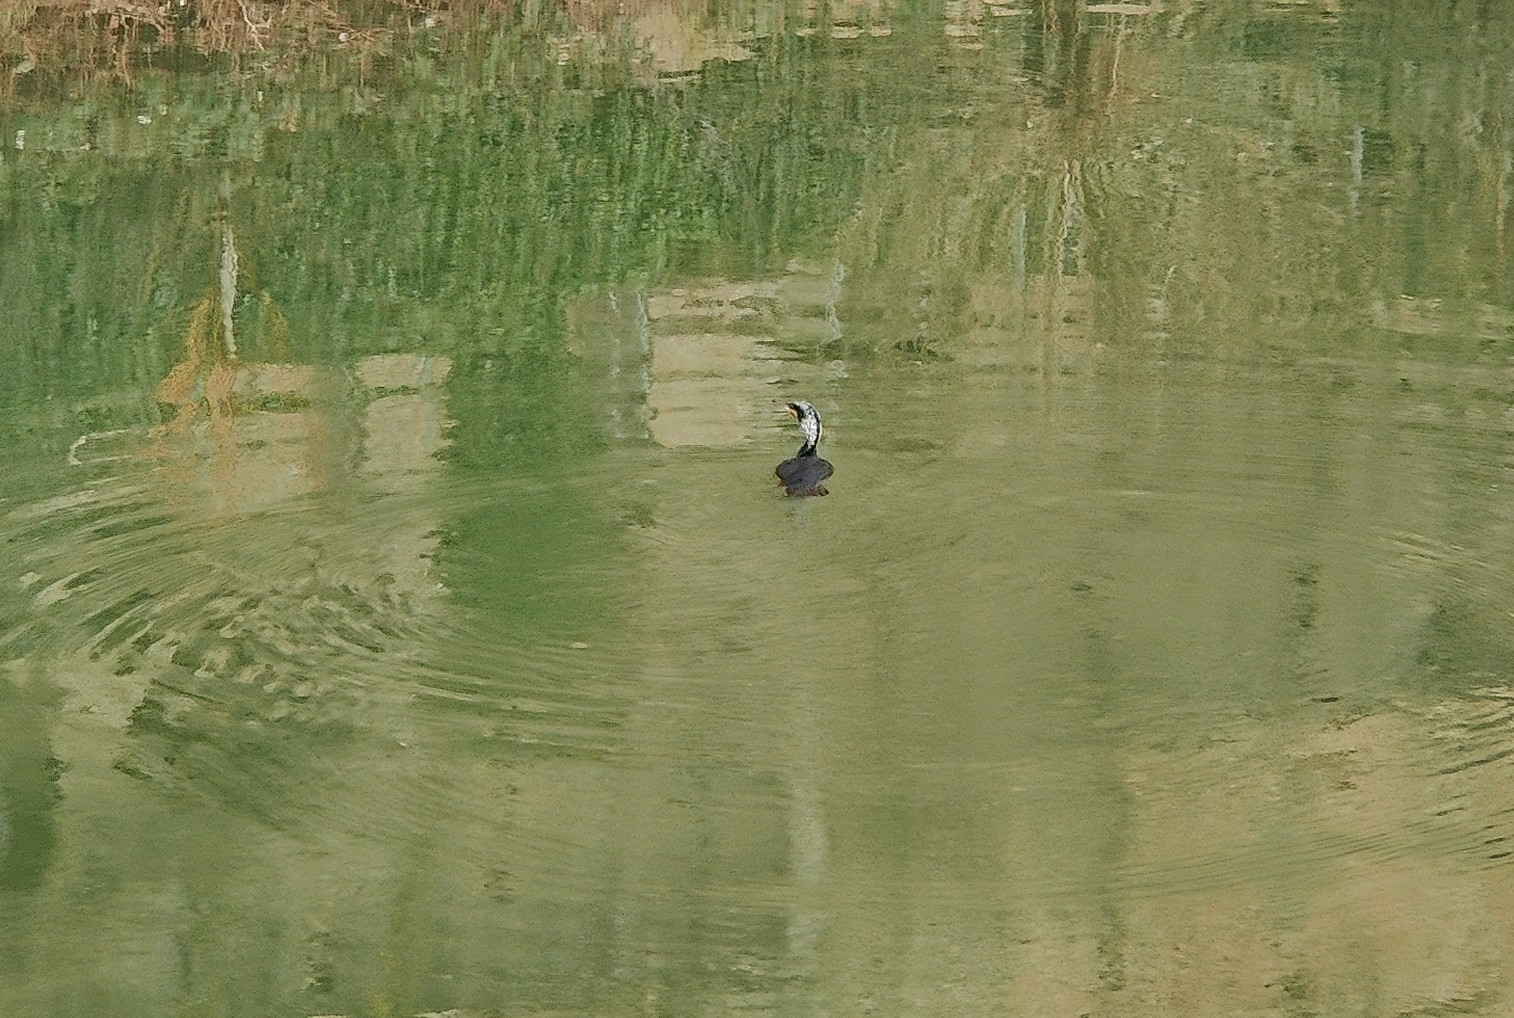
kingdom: Animalia
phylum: Chordata
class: Aves
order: Suliformes
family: Phalacrocoracidae
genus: Phalacrocorax
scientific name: Phalacrocorax carbo
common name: Great cormorant
